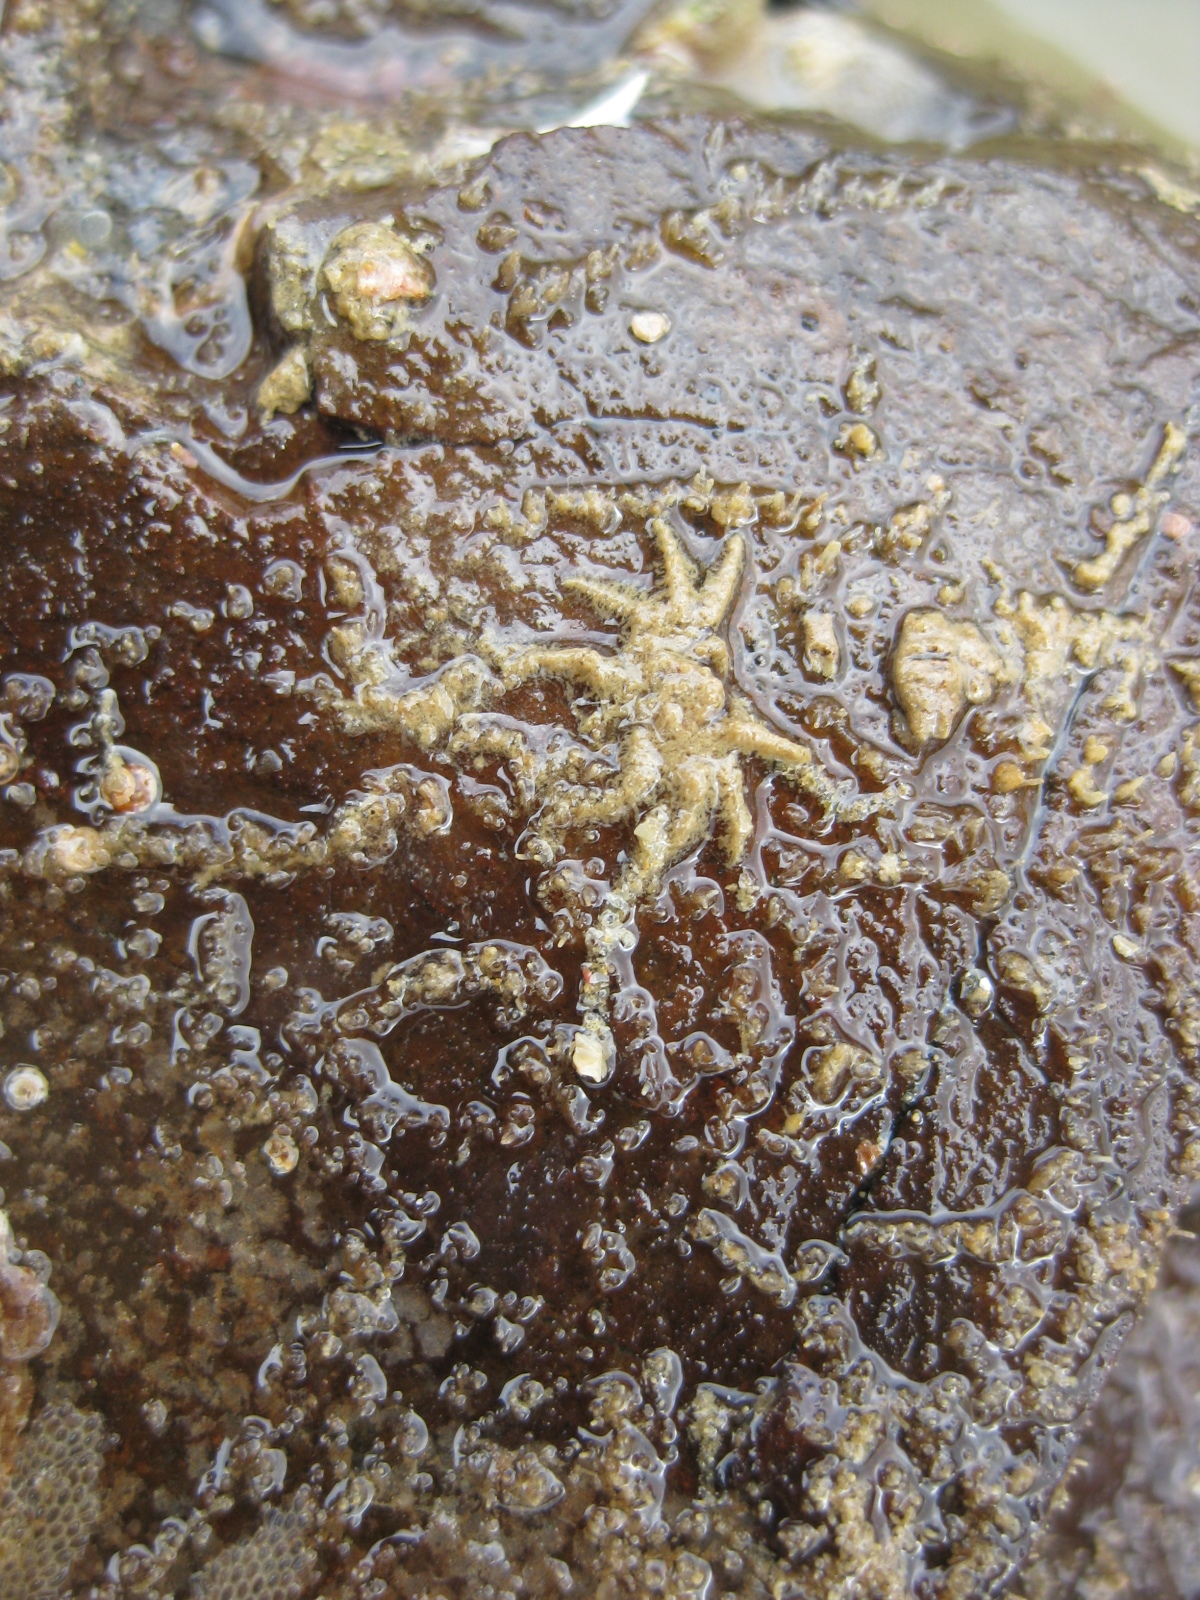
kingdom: Animalia
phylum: Arthropoda
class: Malacostraca
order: Decapoda
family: Hymenosomatidae
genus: Neohymenicus
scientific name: Neohymenicus pubescens
